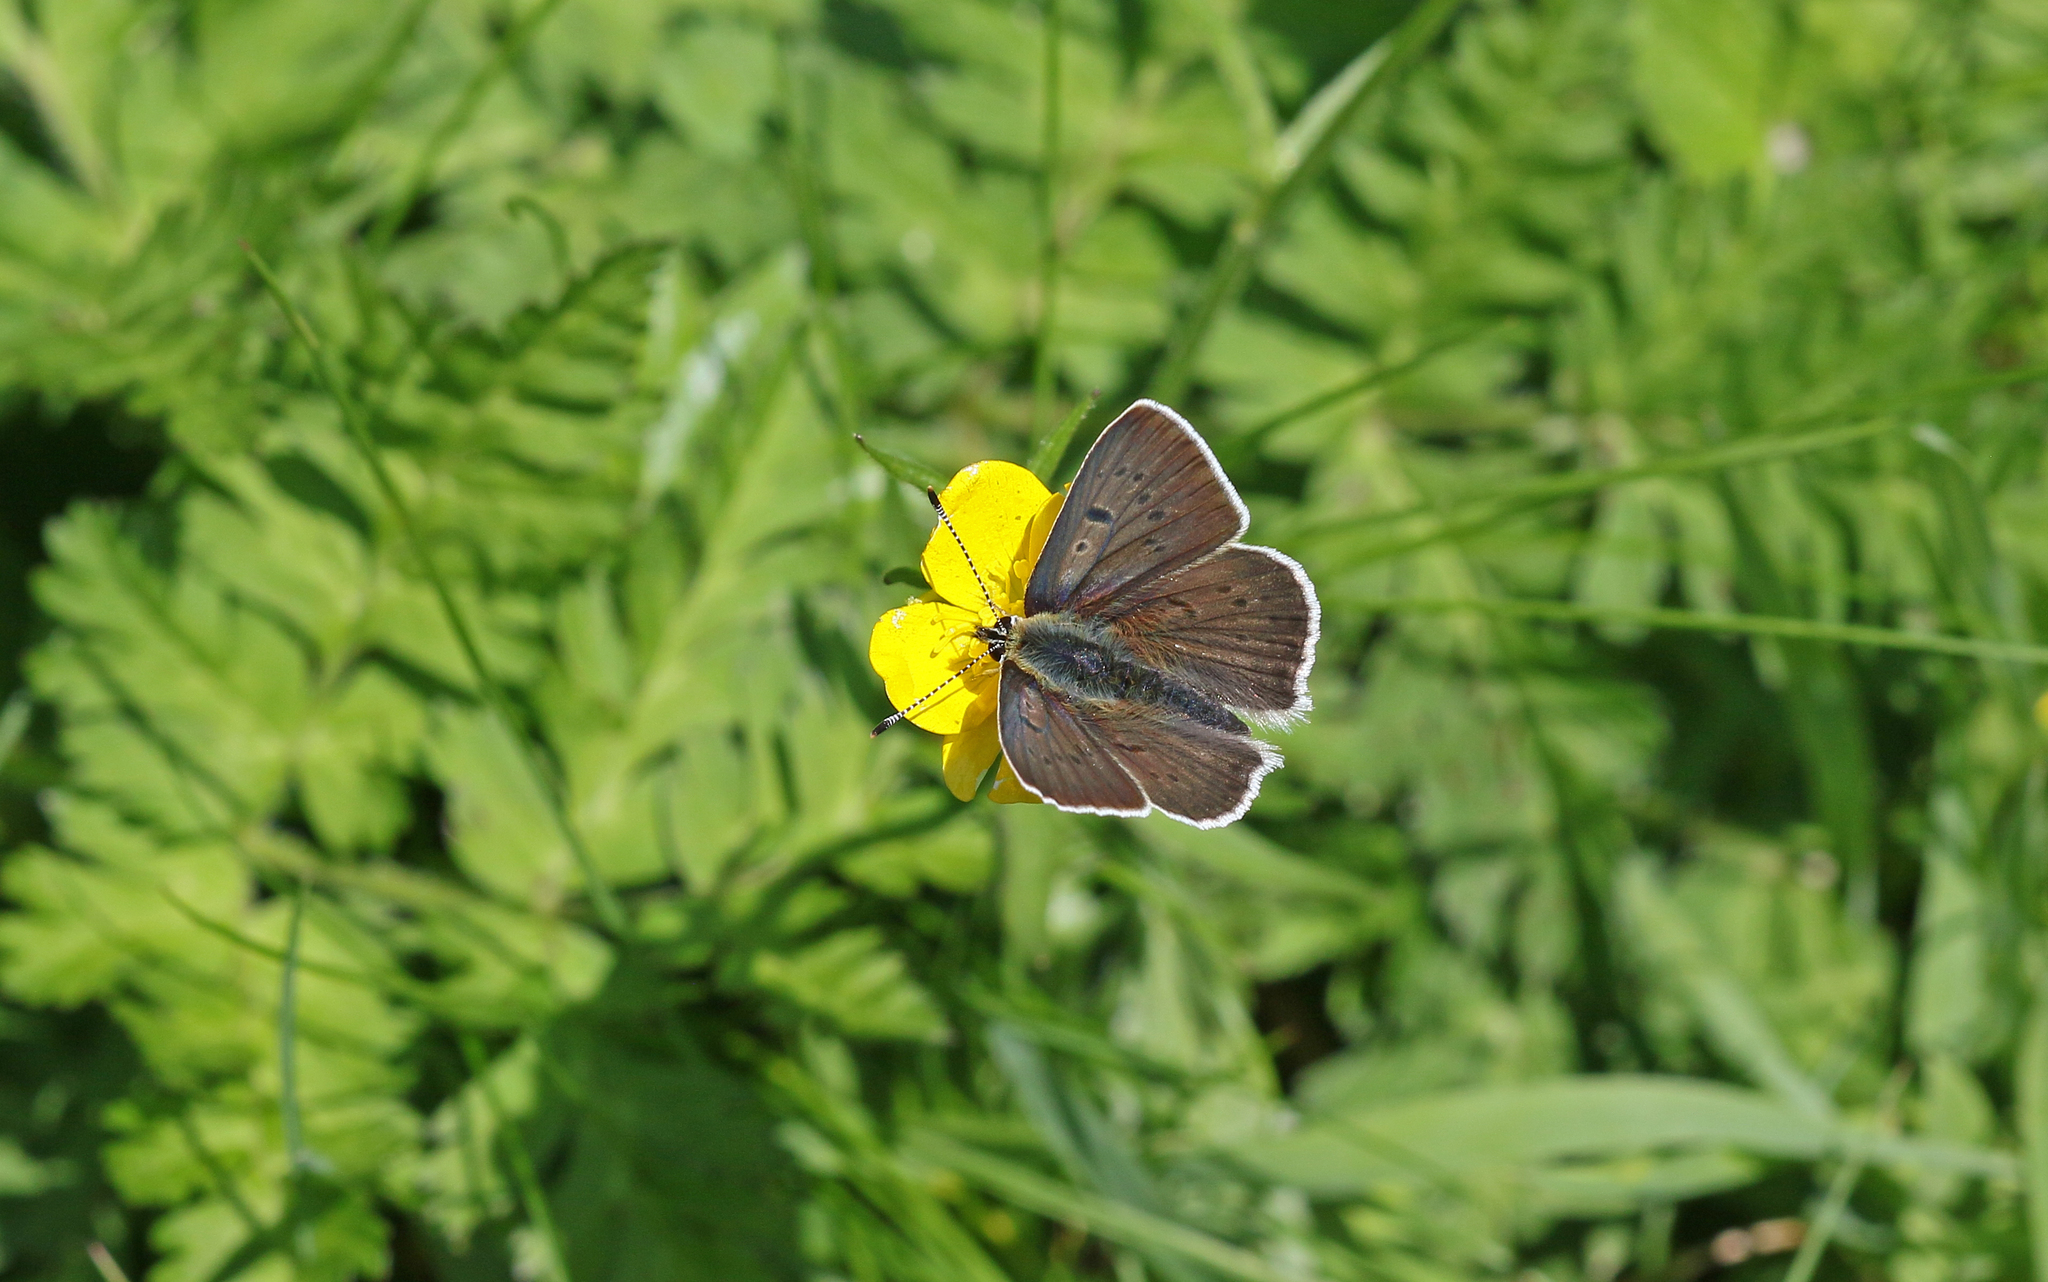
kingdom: Animalia
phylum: Arthropoda
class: Insecta
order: Lepidoptera
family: Lycaenidae
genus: Loweia
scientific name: Loweia tityrus
